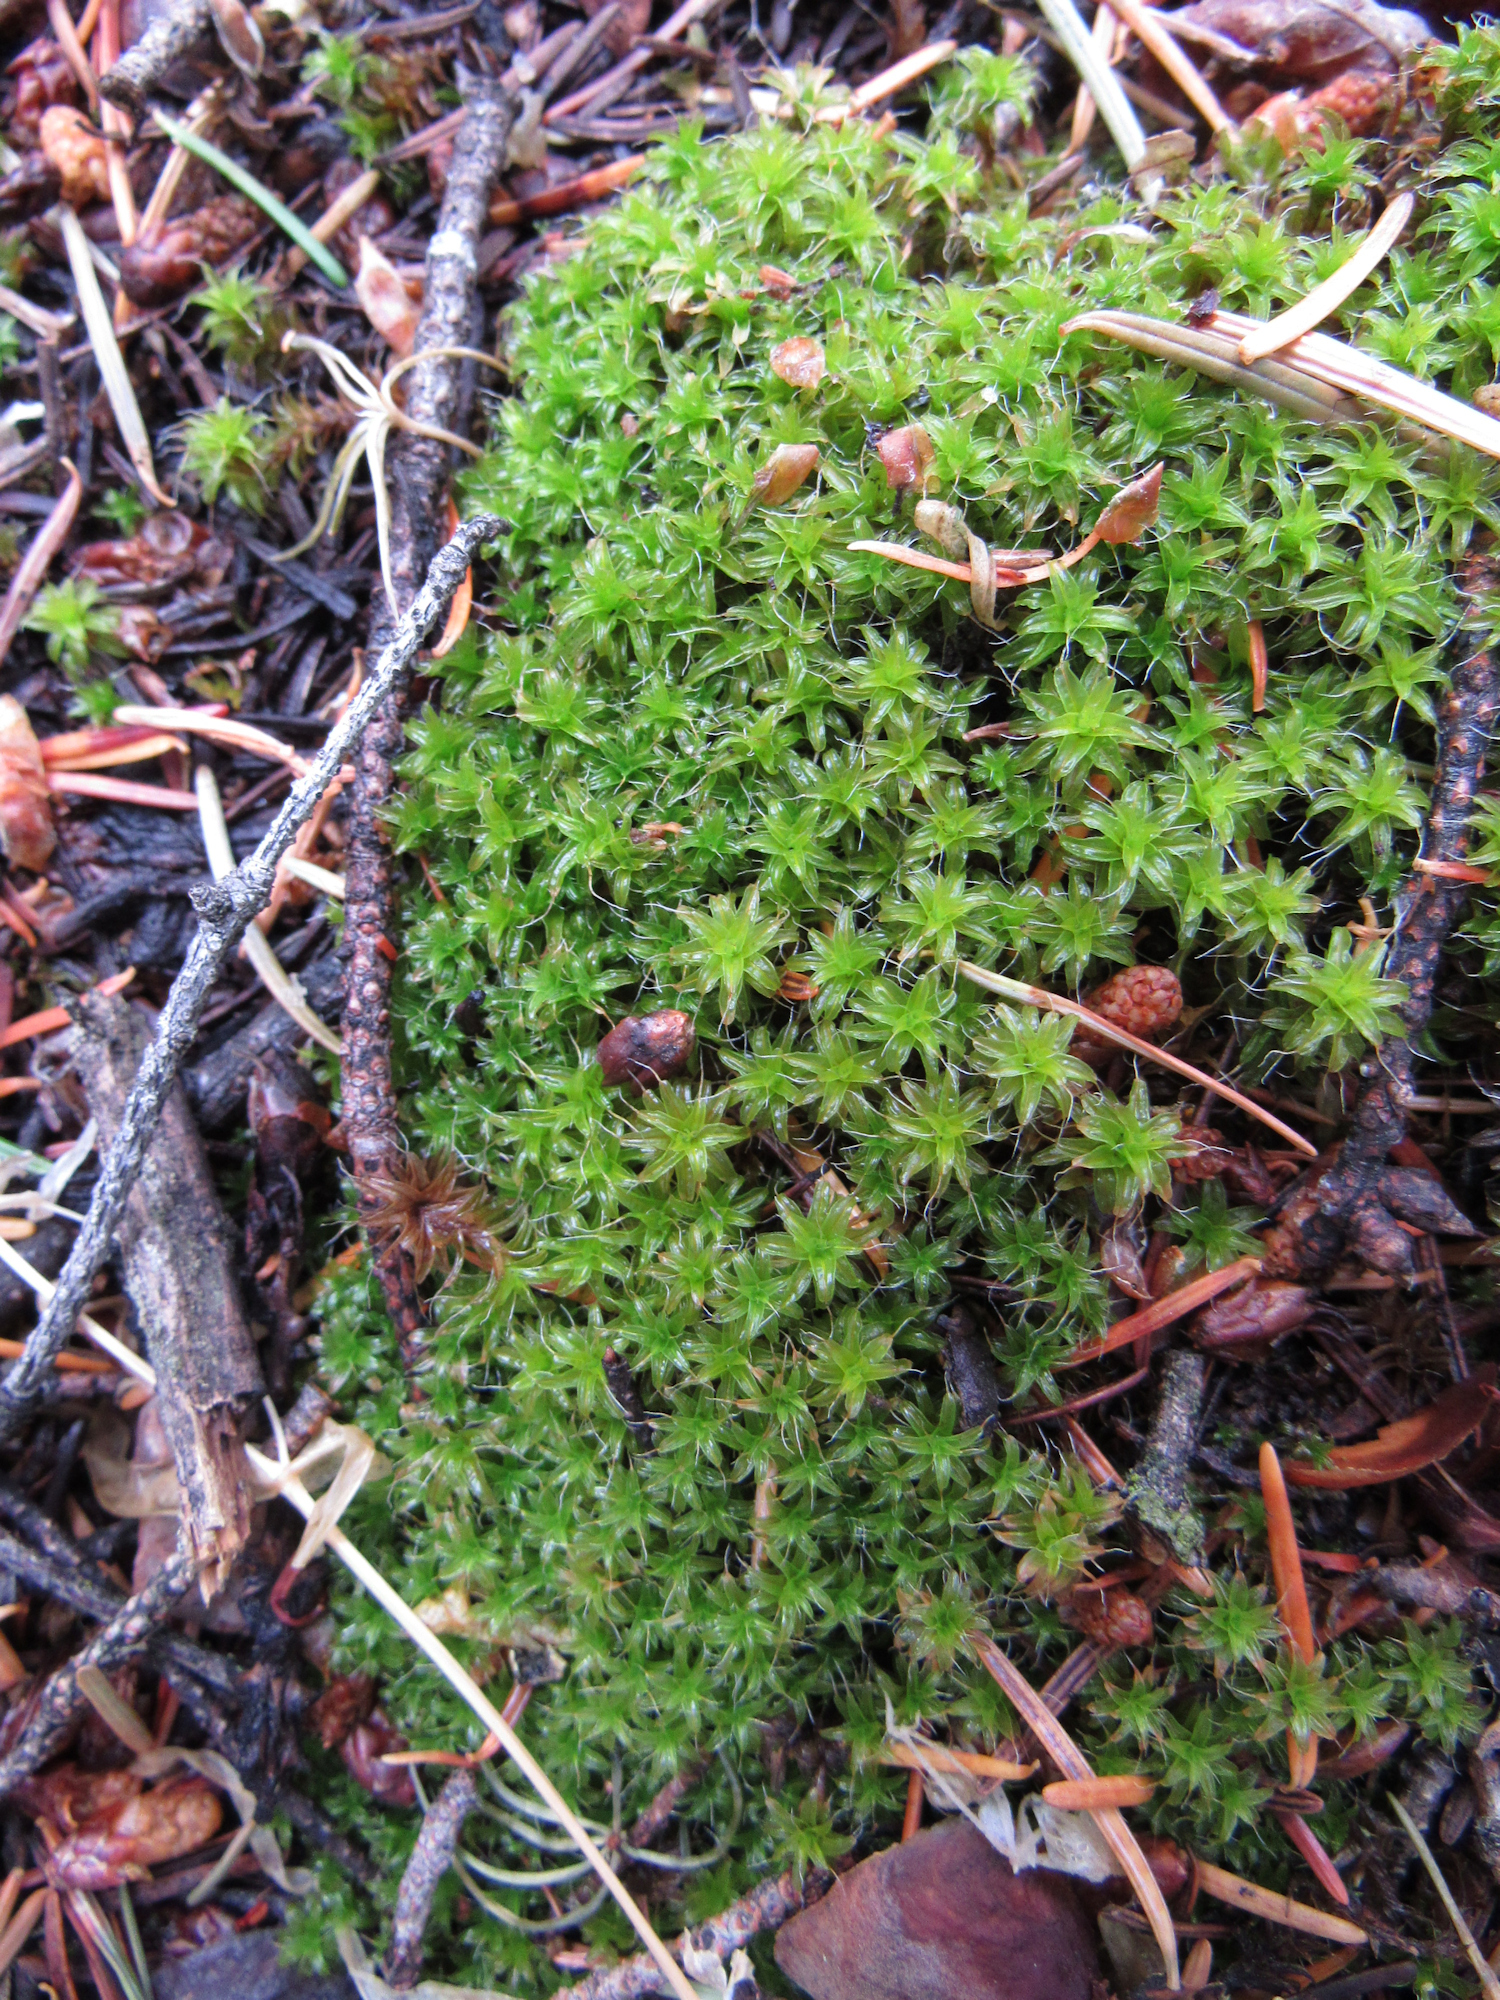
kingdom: Plantae
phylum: Bryophyta
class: Bryopsida
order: Pottiales
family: Pottiaceae
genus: Syntrichia
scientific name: Syntrichia ruralis
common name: Sidewalk screw moss
